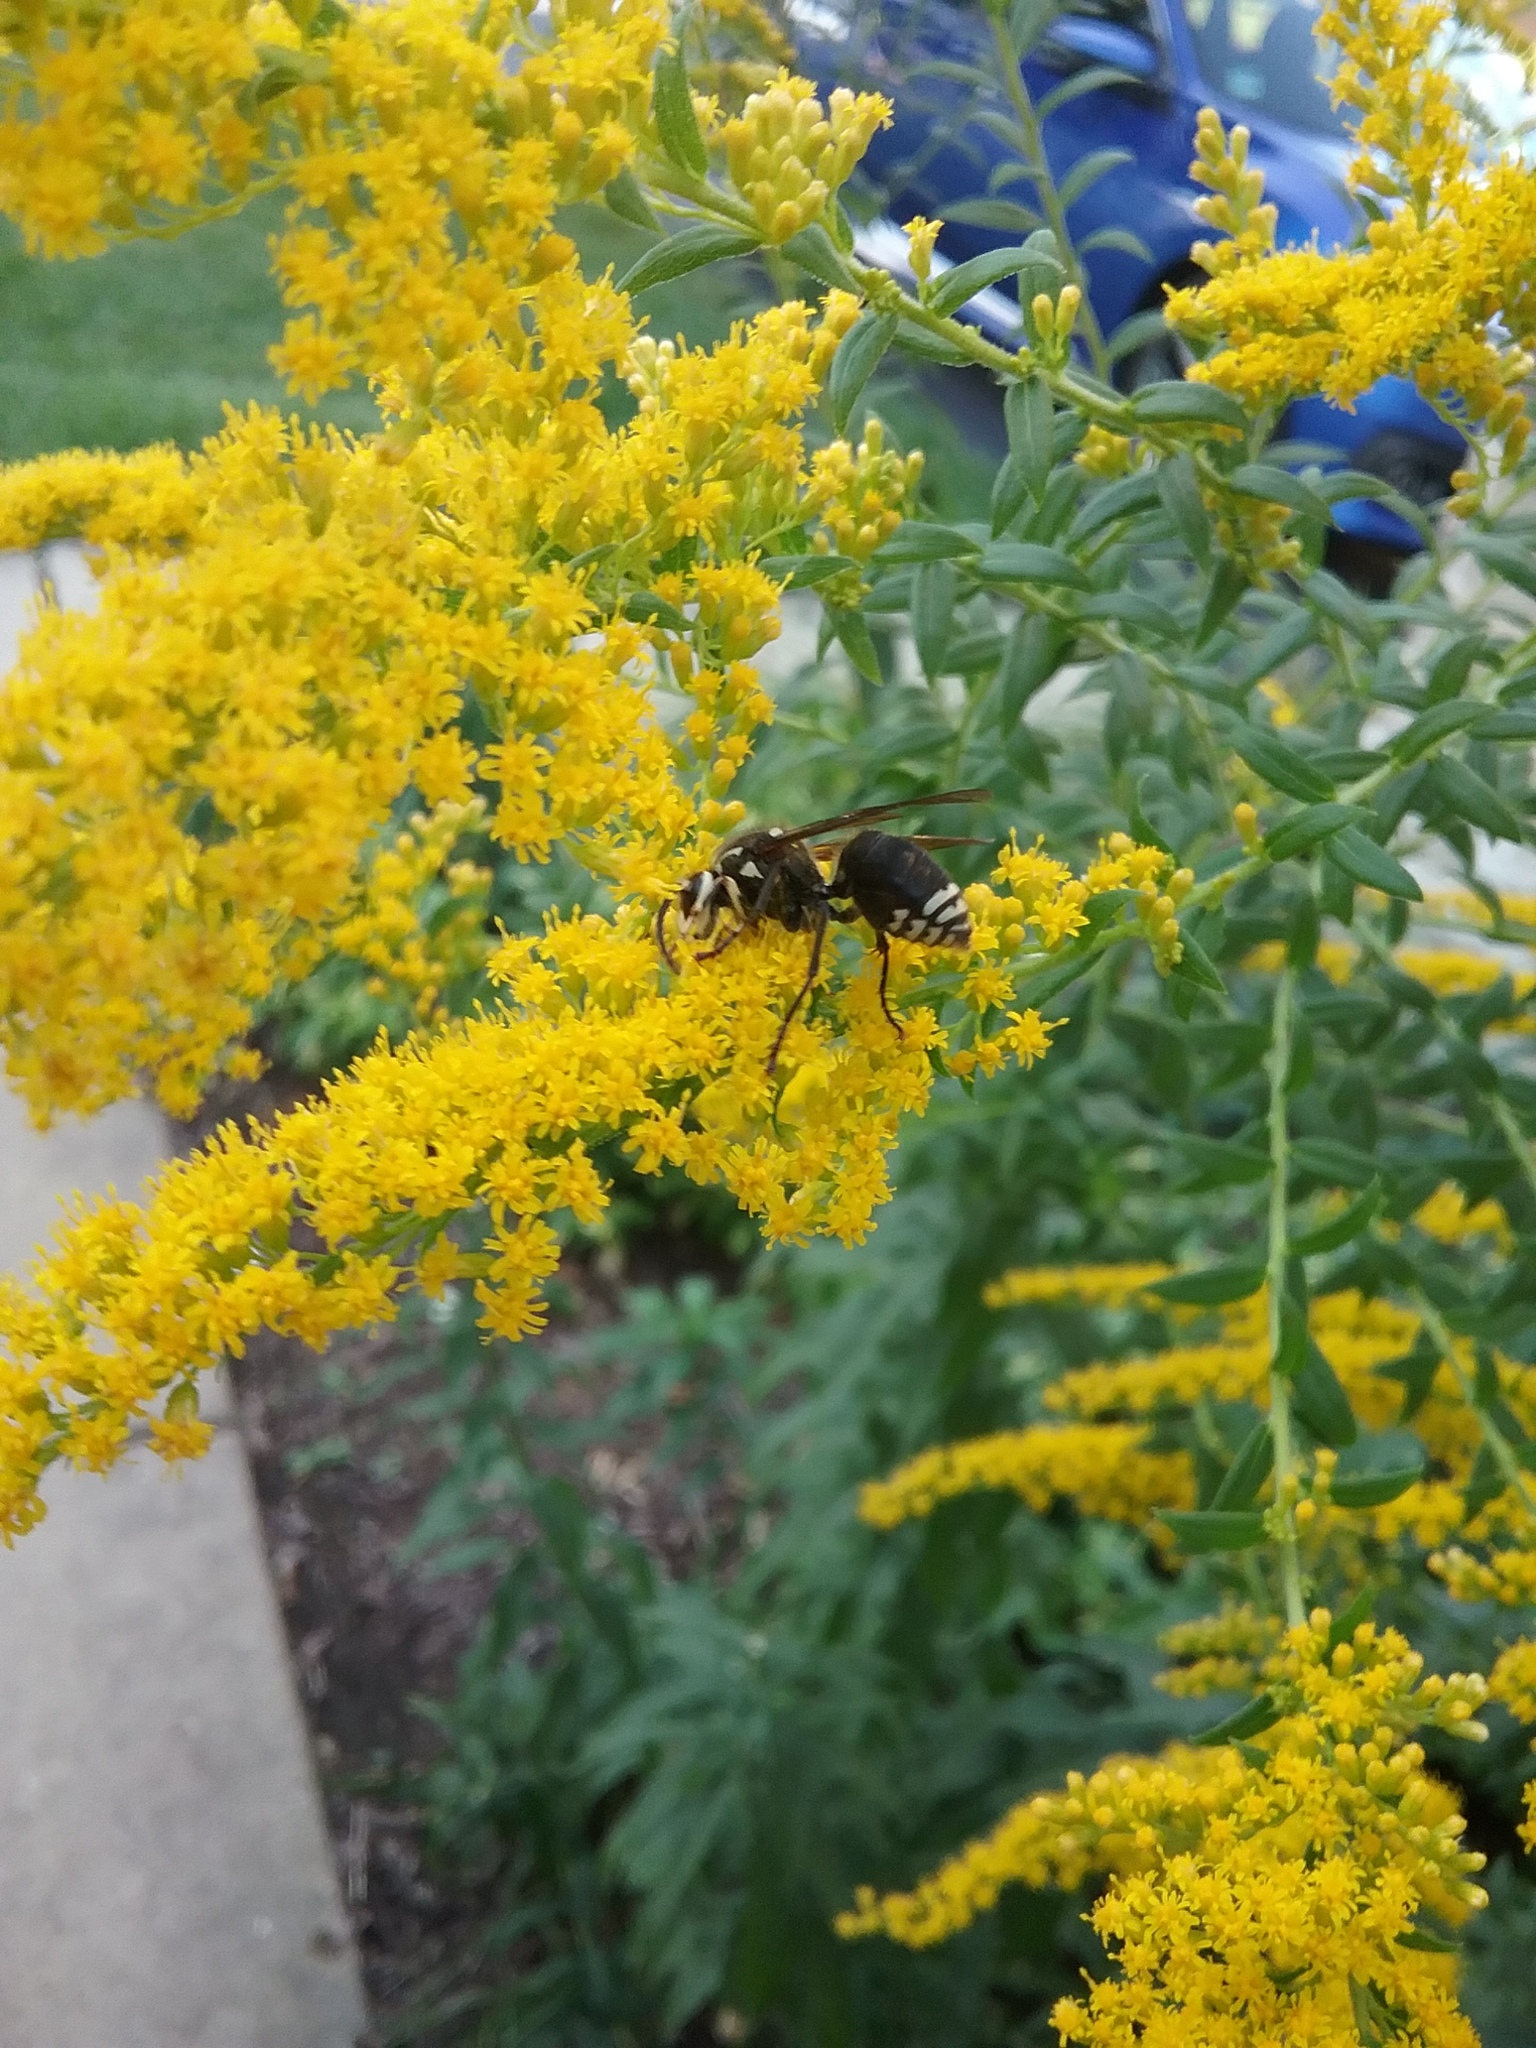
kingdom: Animalia
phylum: Arthropoda
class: Insecta
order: Hymenoptera
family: Vespidae
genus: Dolichovespula
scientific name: Dolichovespula maculata
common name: Bald-faced hornet
